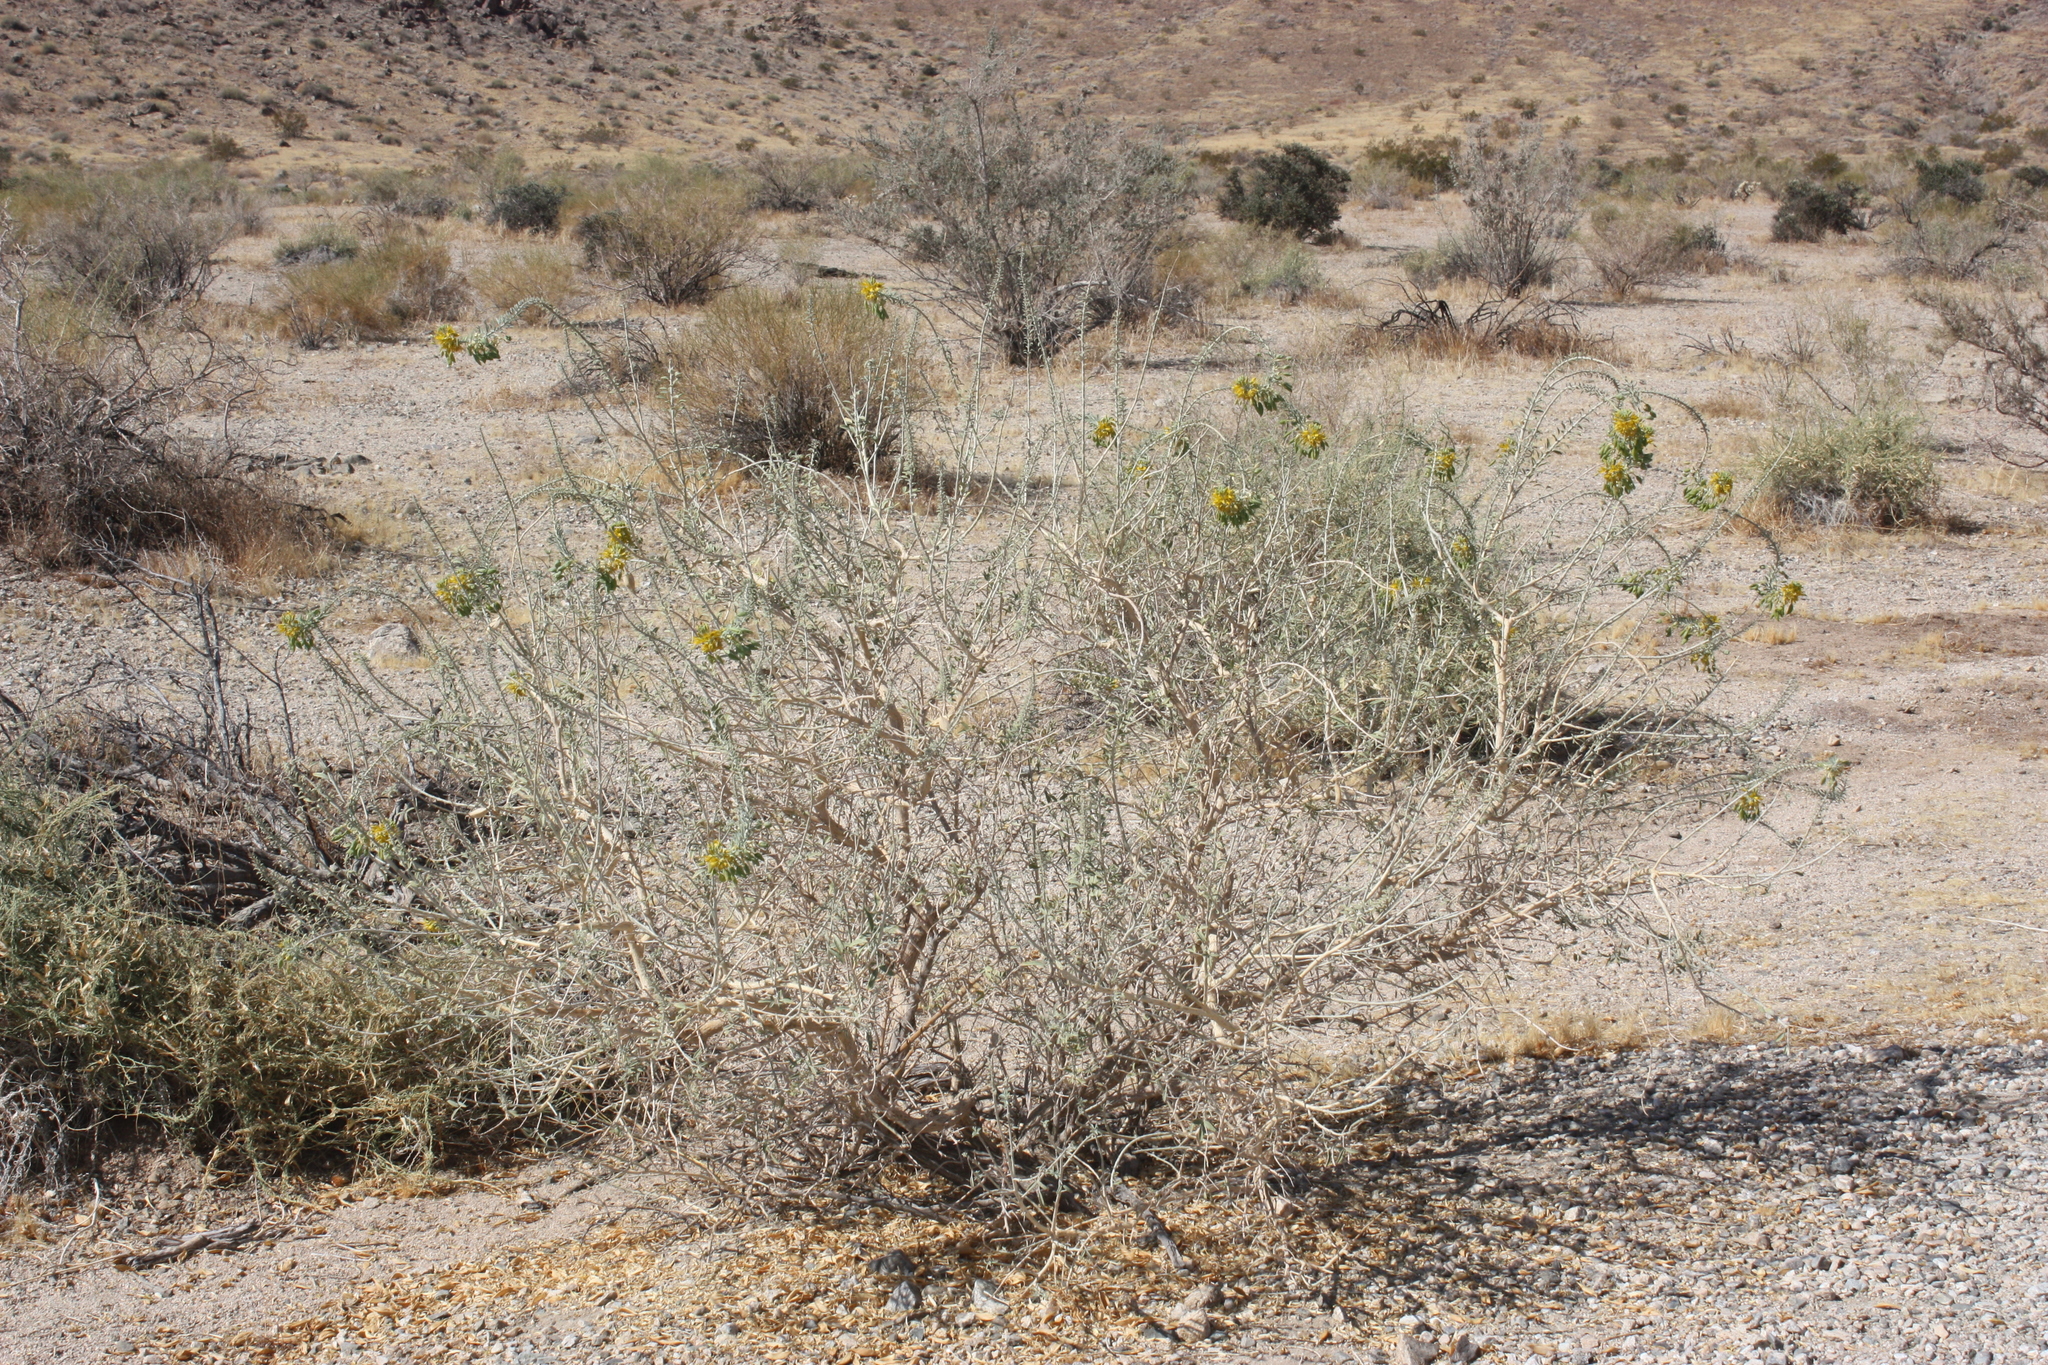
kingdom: Plantae
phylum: Tracheophyta
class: Magnoliopsida
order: Brassicales
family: Cleomaceae
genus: Cleomella
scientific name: Cleomella arborea
